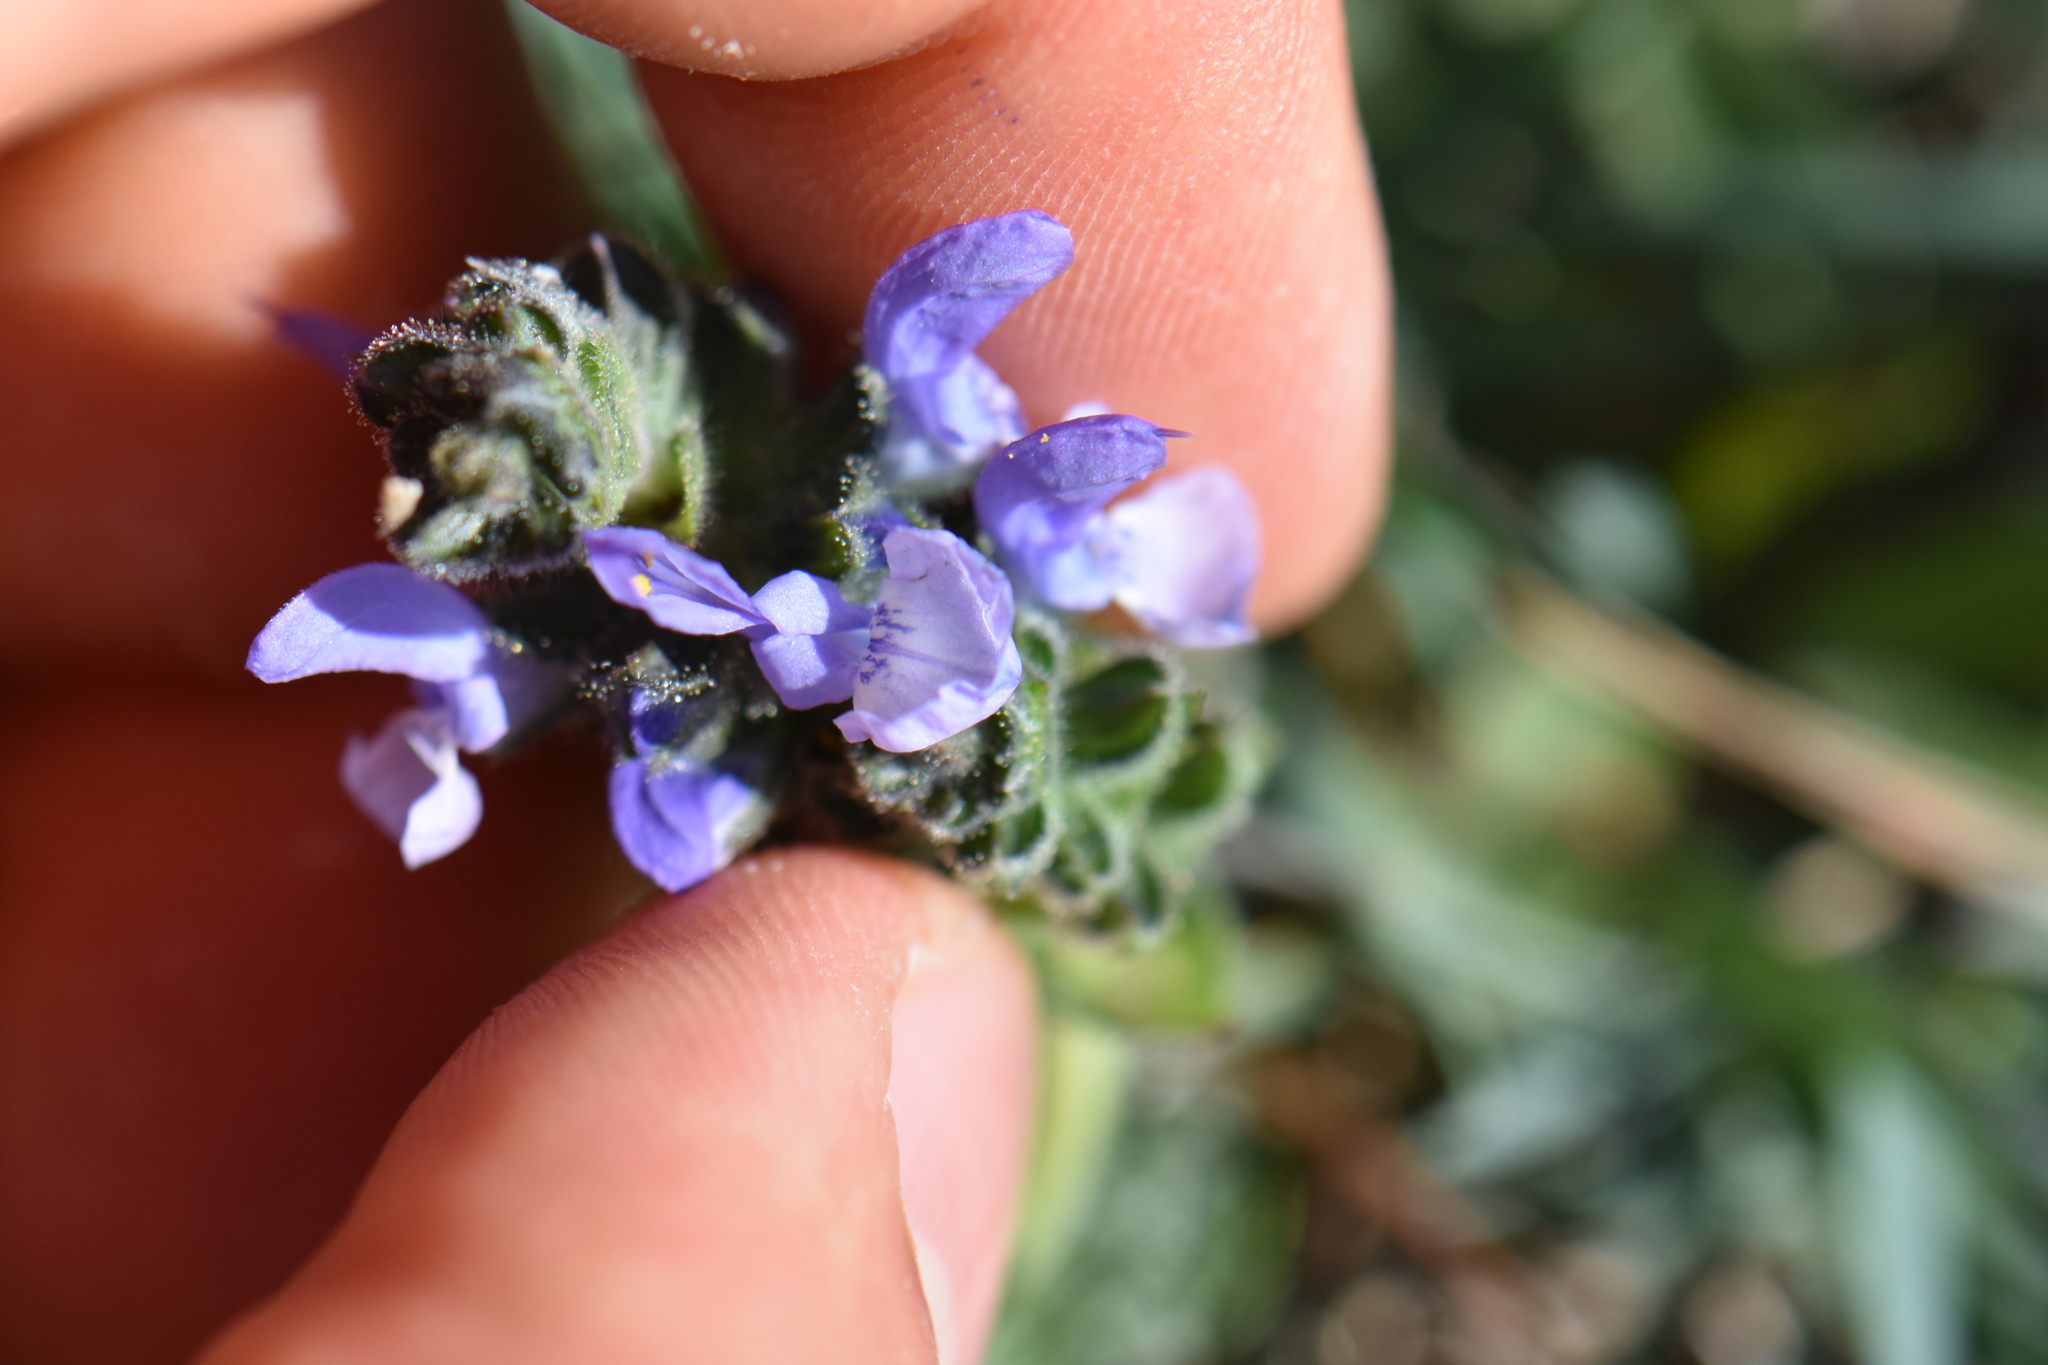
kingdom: Plantae
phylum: Tracheophyta
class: Magnoliopsida
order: Lamiales
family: Lamiaceae
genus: Salvia
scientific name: Salvia verbenaca
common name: Wild clary
